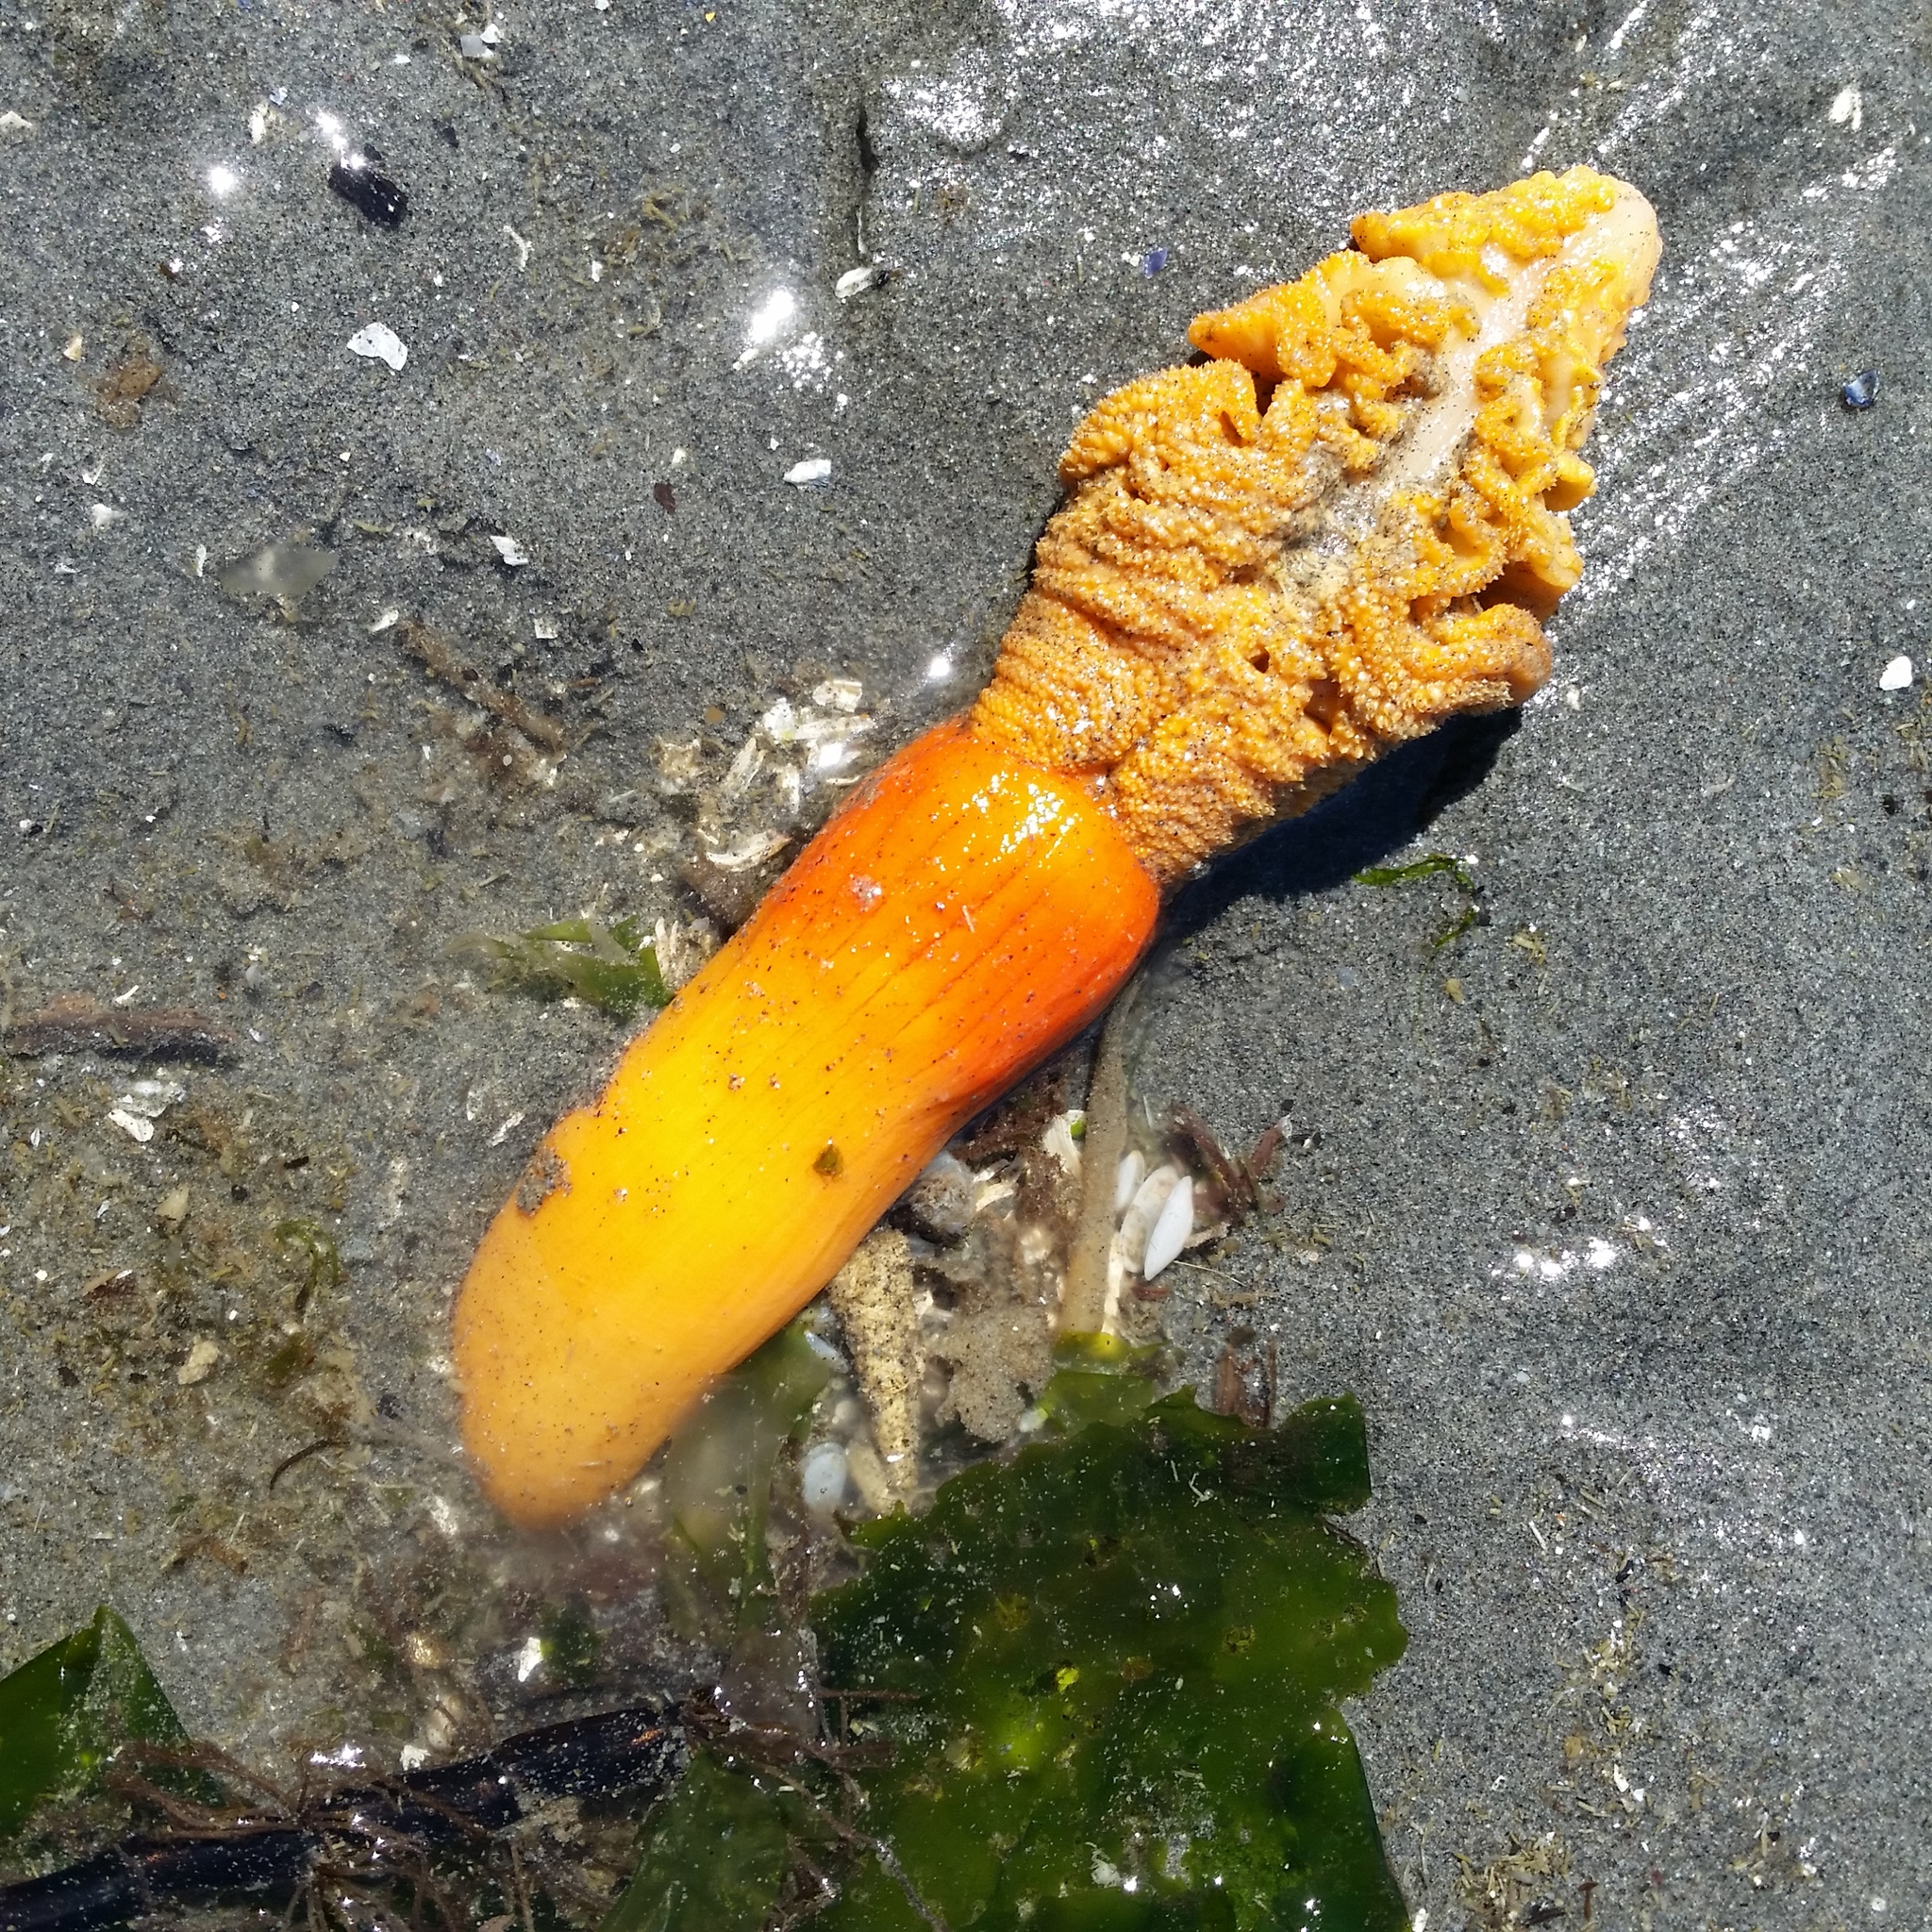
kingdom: Animalia
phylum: Cnidaria
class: Anthozoa
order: Scleralcyonacea
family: Pennatulidae
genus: Ptilosarcus
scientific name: Ptilosarcus gurneyi
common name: Gurney's sea pen
